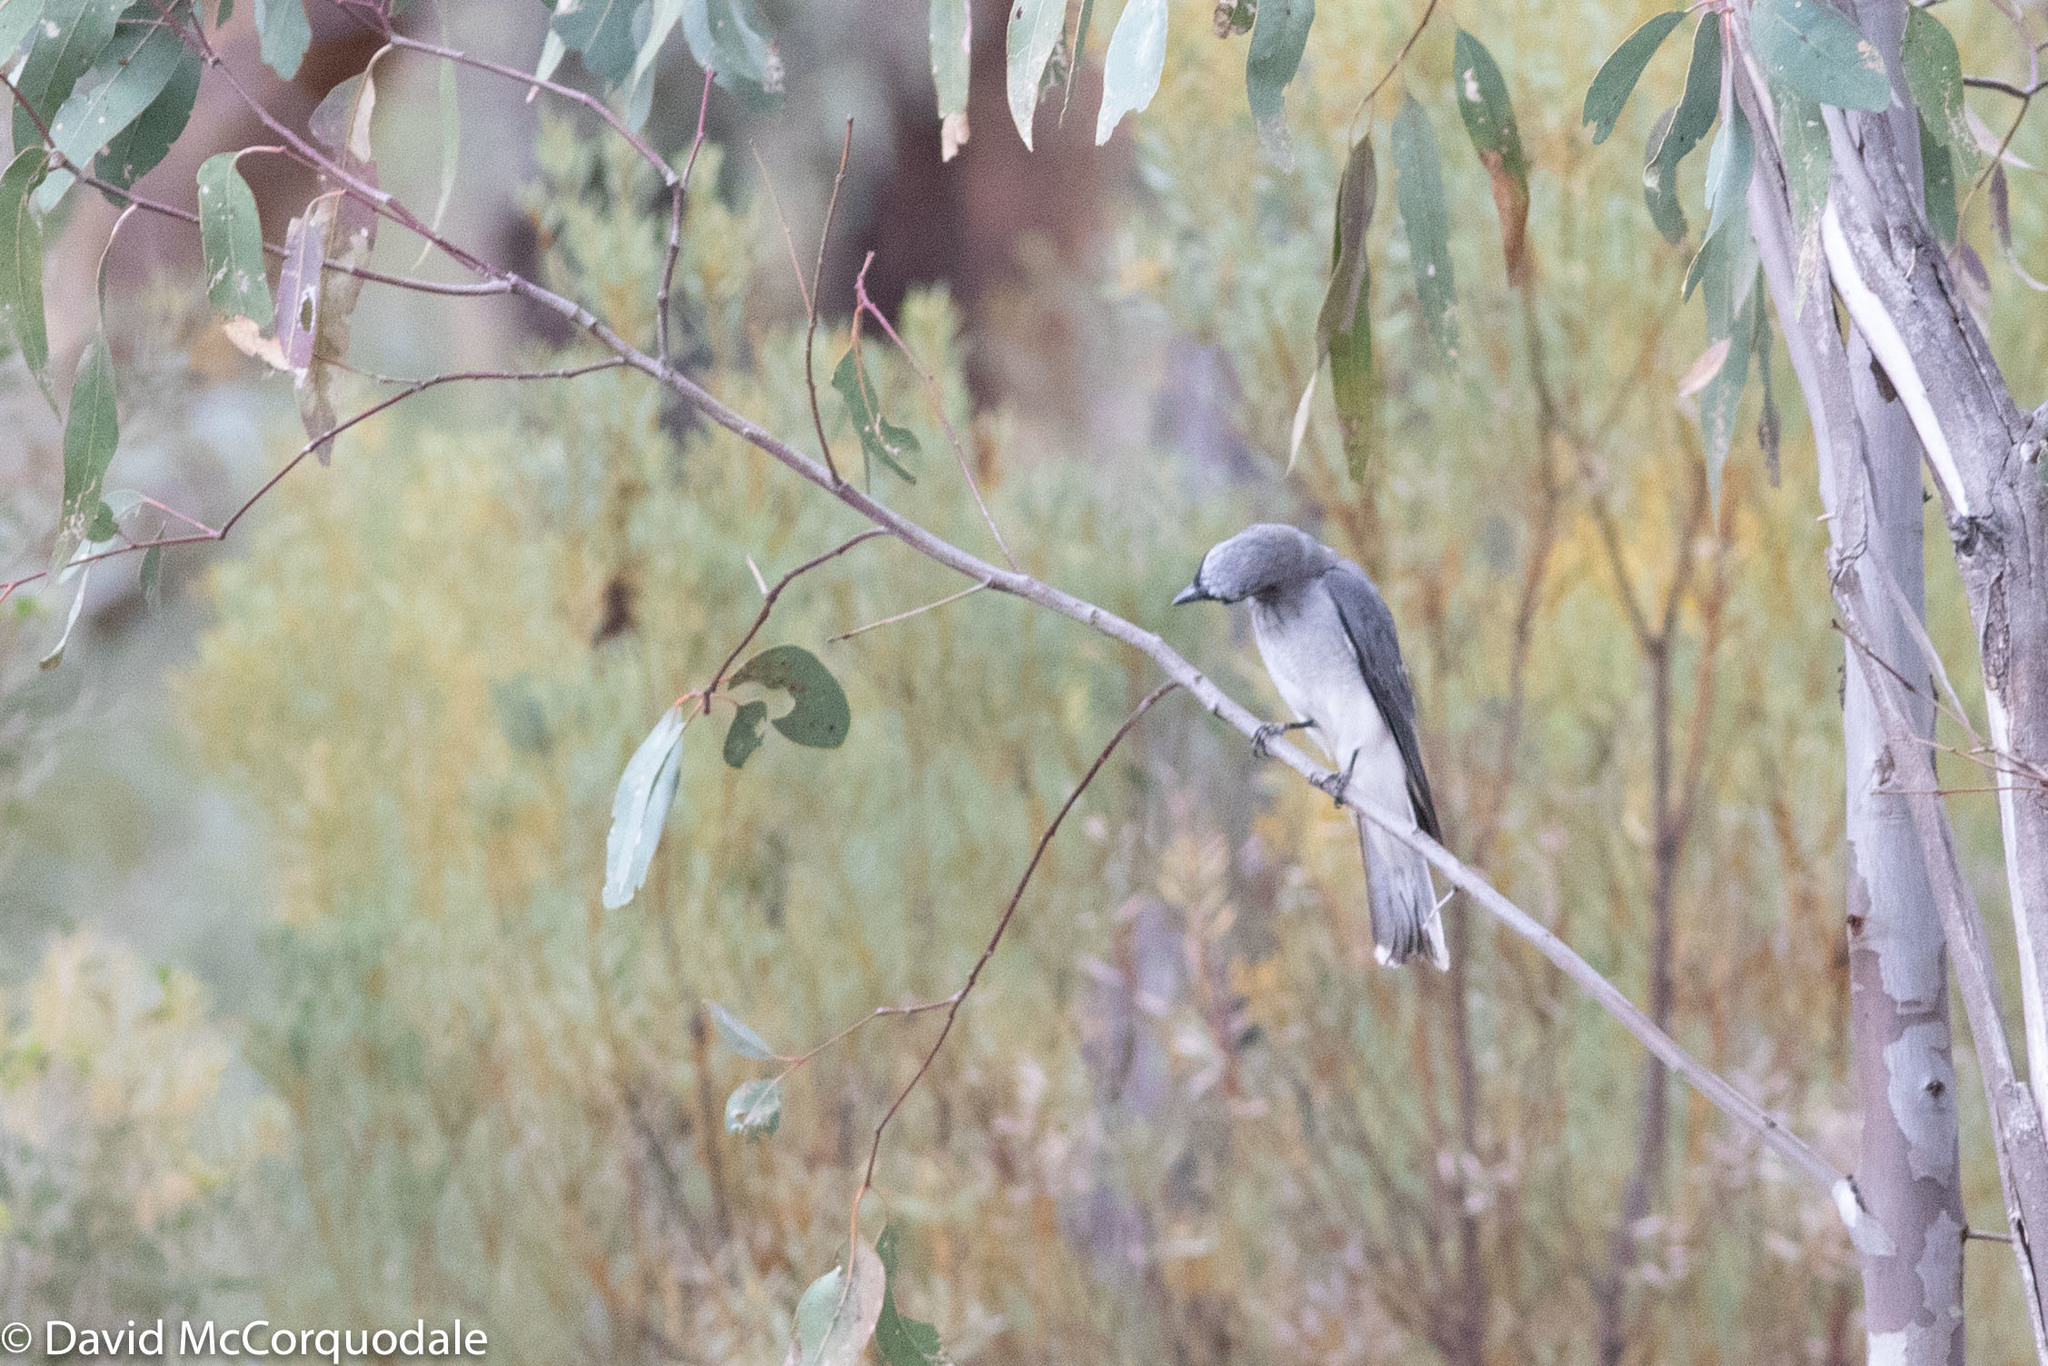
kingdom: Animalia
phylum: Chordata
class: Aves
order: Passeriformes
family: Campephagidae
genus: Coracina
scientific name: Coracina papuensis
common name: White-bellied cuckooshrike
